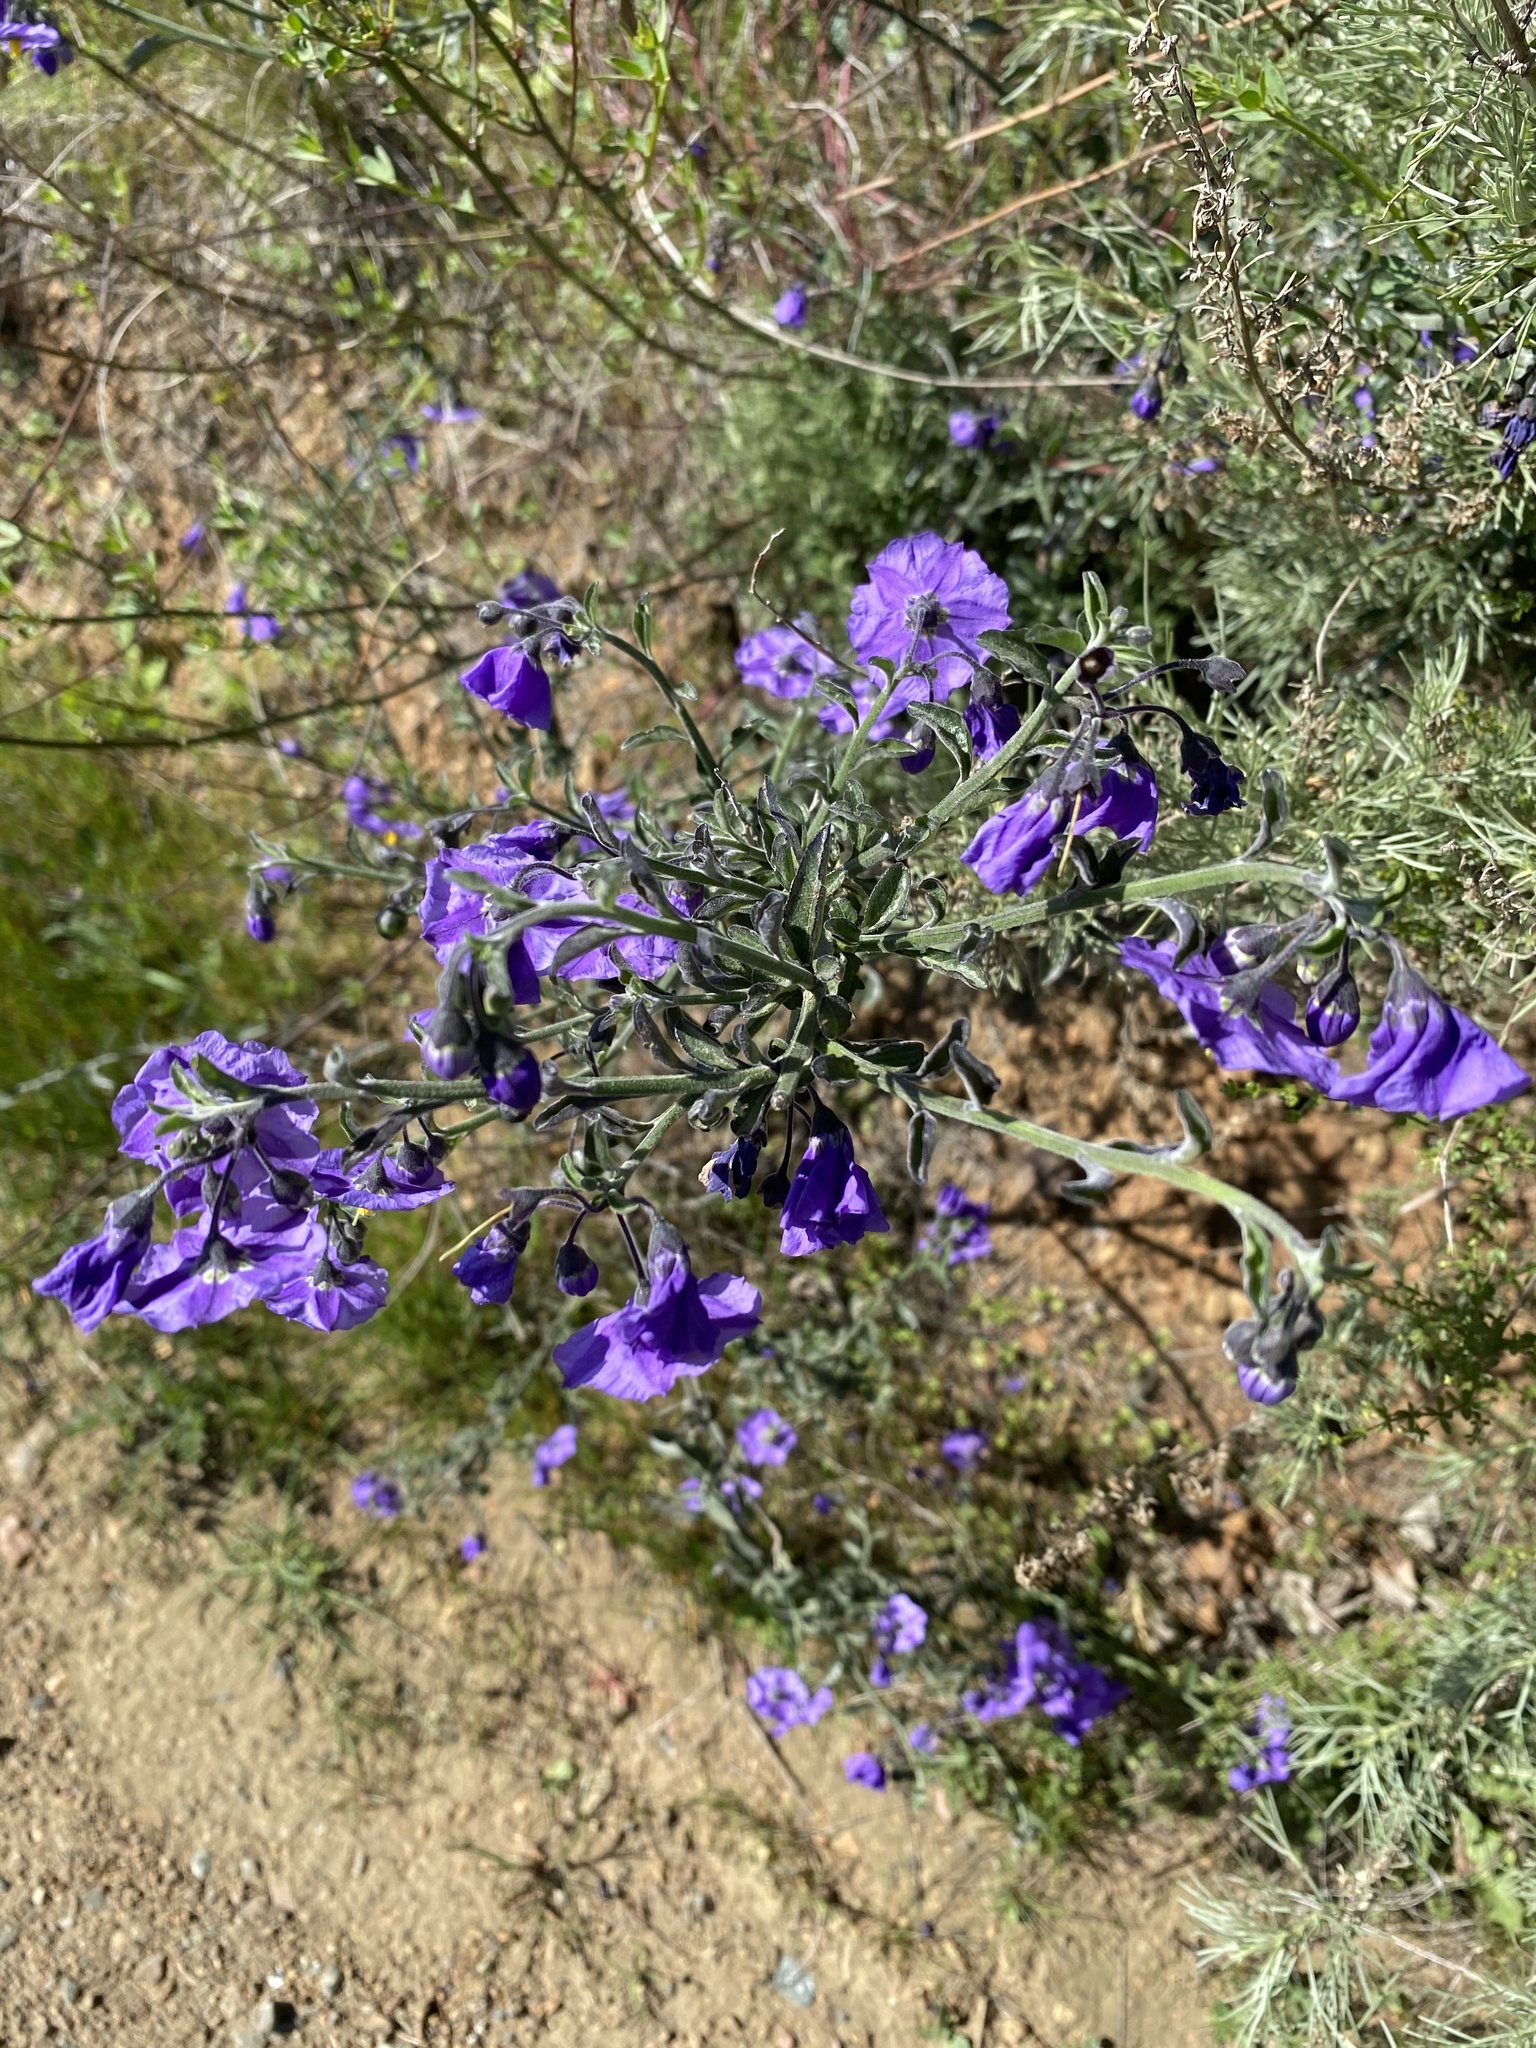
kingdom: Plantae
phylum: Tracheophyta
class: Magnoliopsida
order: Solanales
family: Solanaceae
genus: Solanum
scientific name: Solanum umbelliferum
